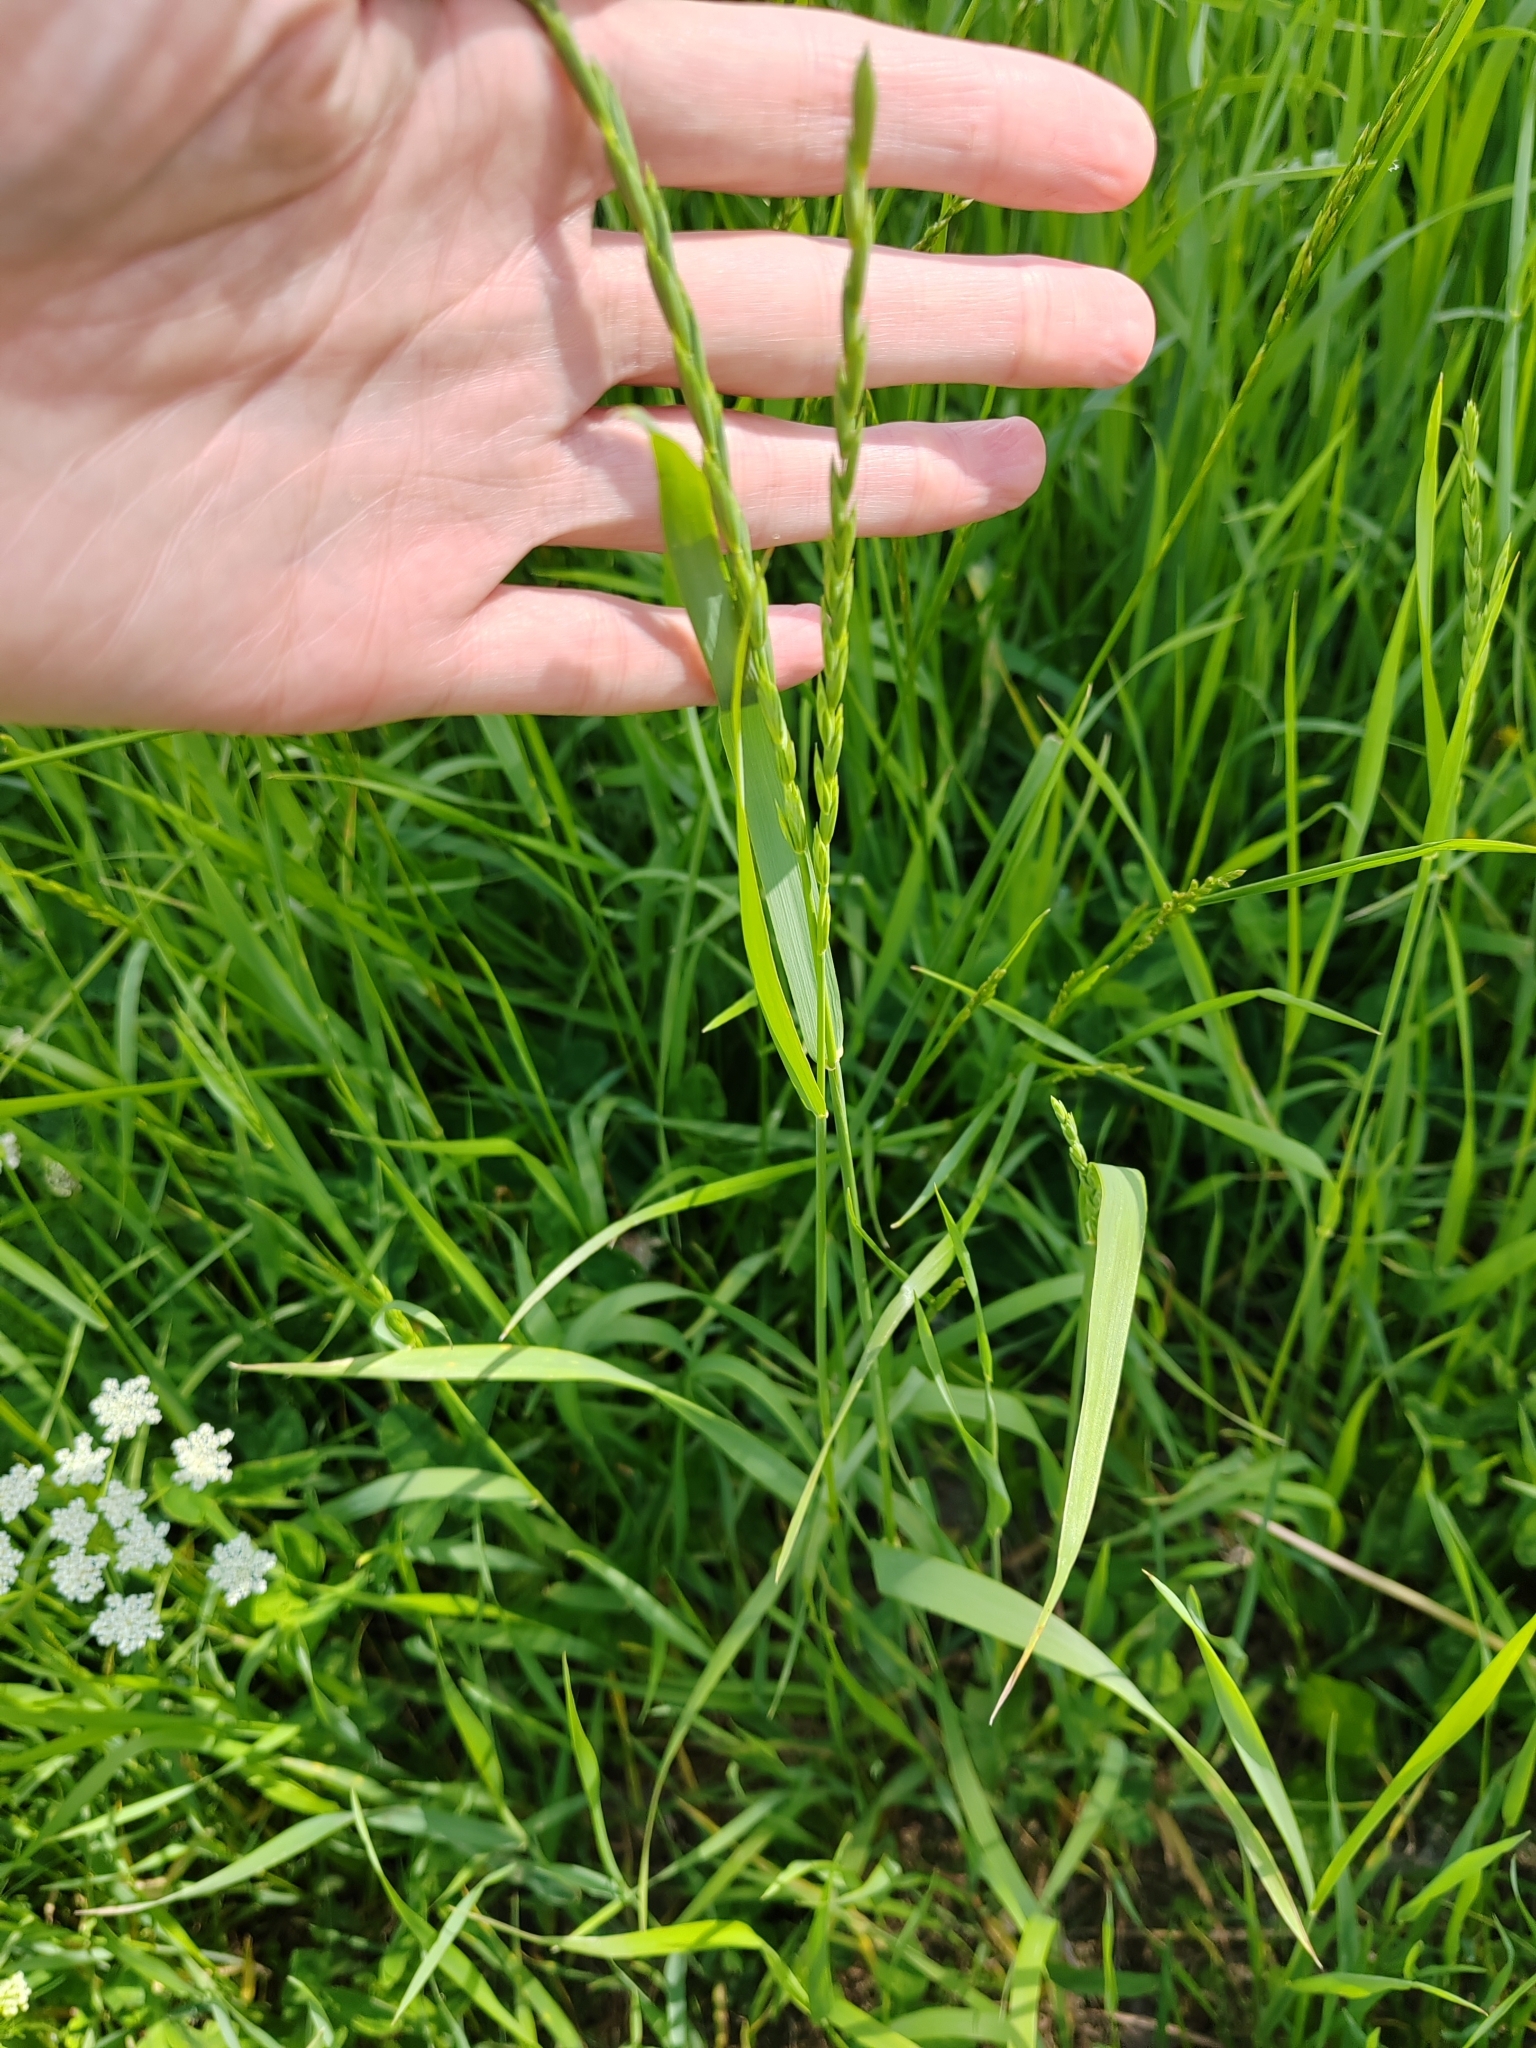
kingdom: Plantae
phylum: Tracheophyta
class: Liliopsida
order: Poales
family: Poaceae
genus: Elymus
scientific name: Elymus repens
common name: Quackgrass
